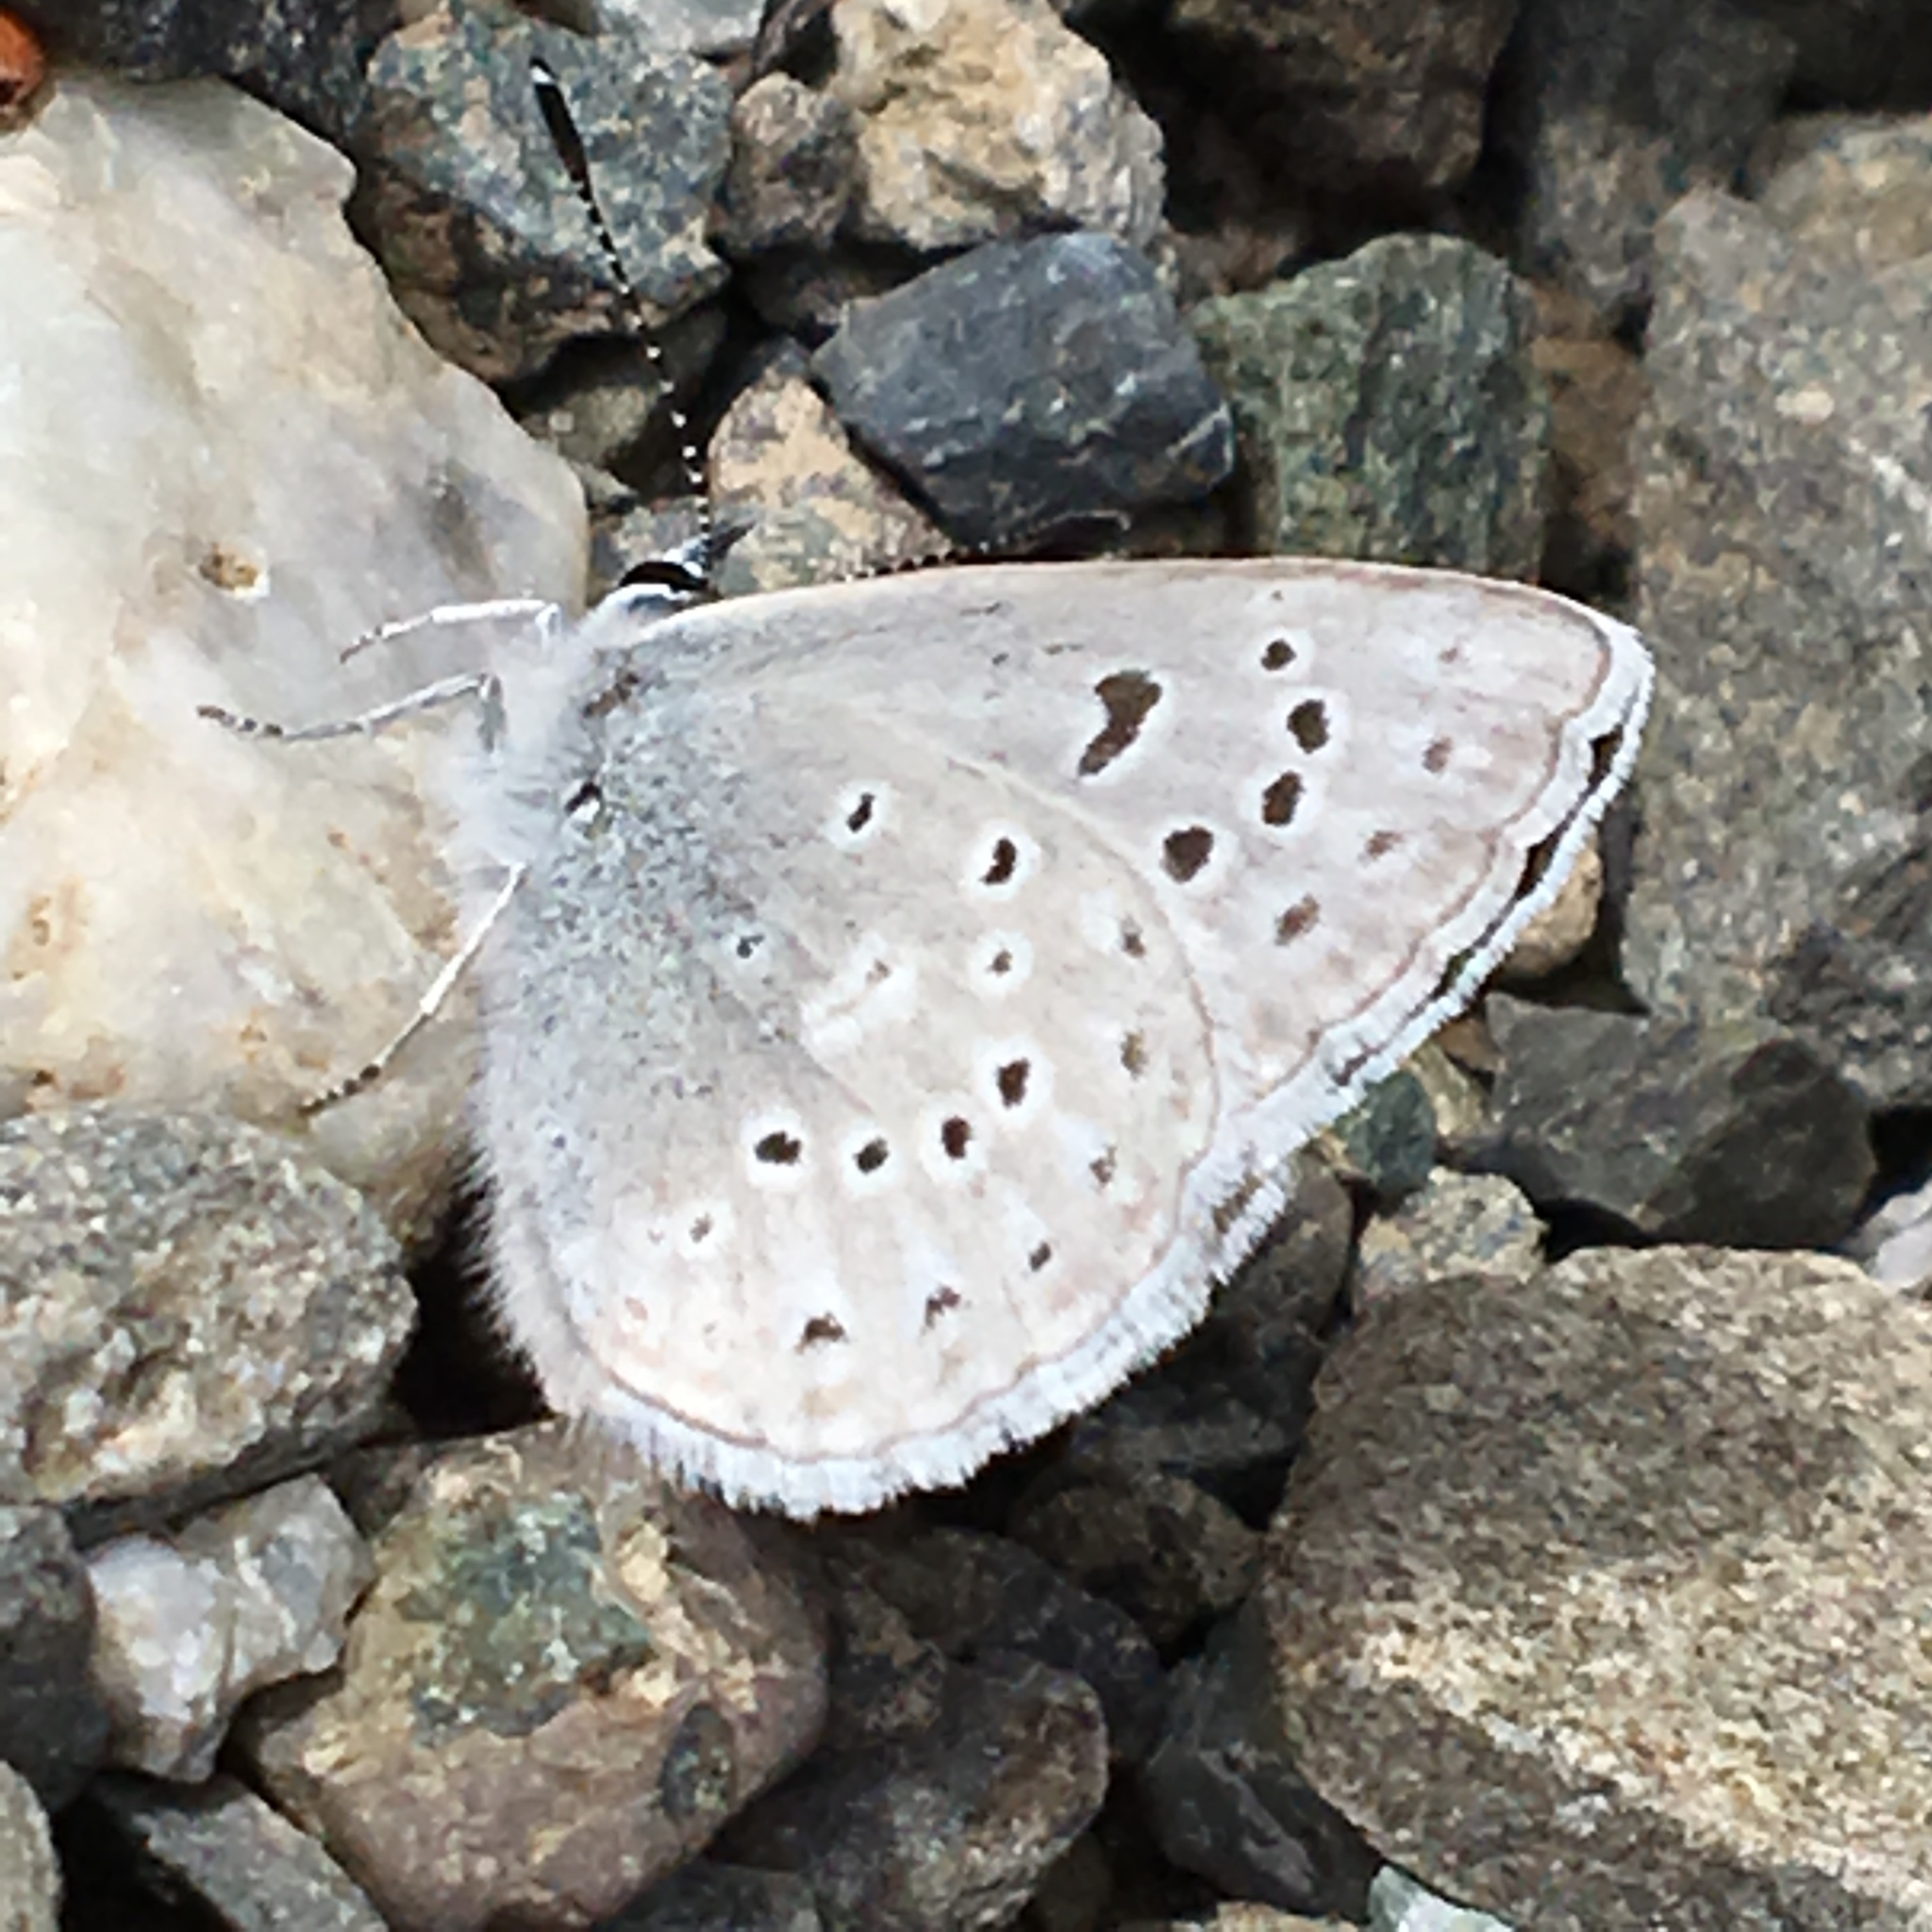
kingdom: Animalia
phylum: Arthropoda
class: Insecta
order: Lepidoptera
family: Lycaenidae
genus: Icaricia
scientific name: Icaricia icarioides
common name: Boisduval's blue
